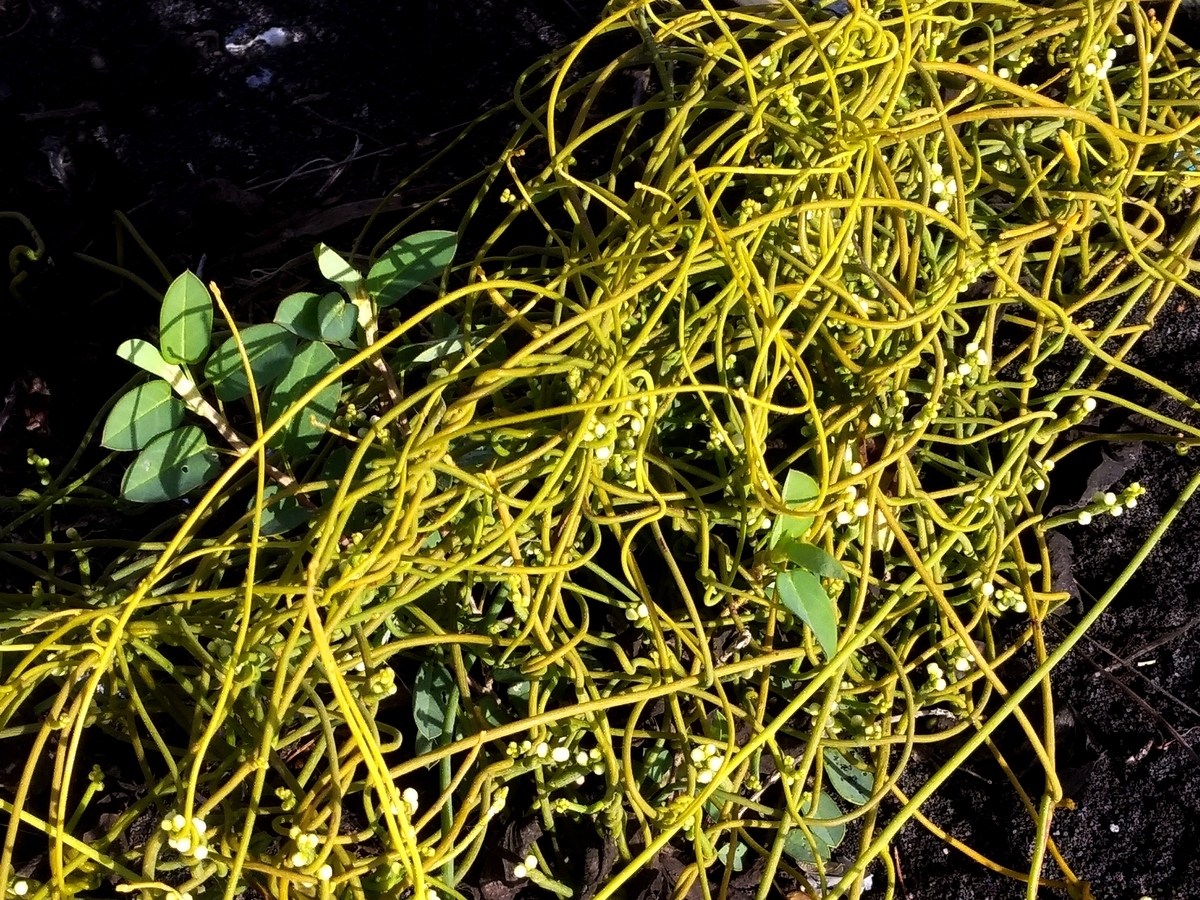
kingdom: Plantae
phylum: Tracheophyta
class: Magnoliopsida
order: Laurales
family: Lauraceae
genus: Cassytha
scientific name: Cassytha filiformis
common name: Dodder-laurel
